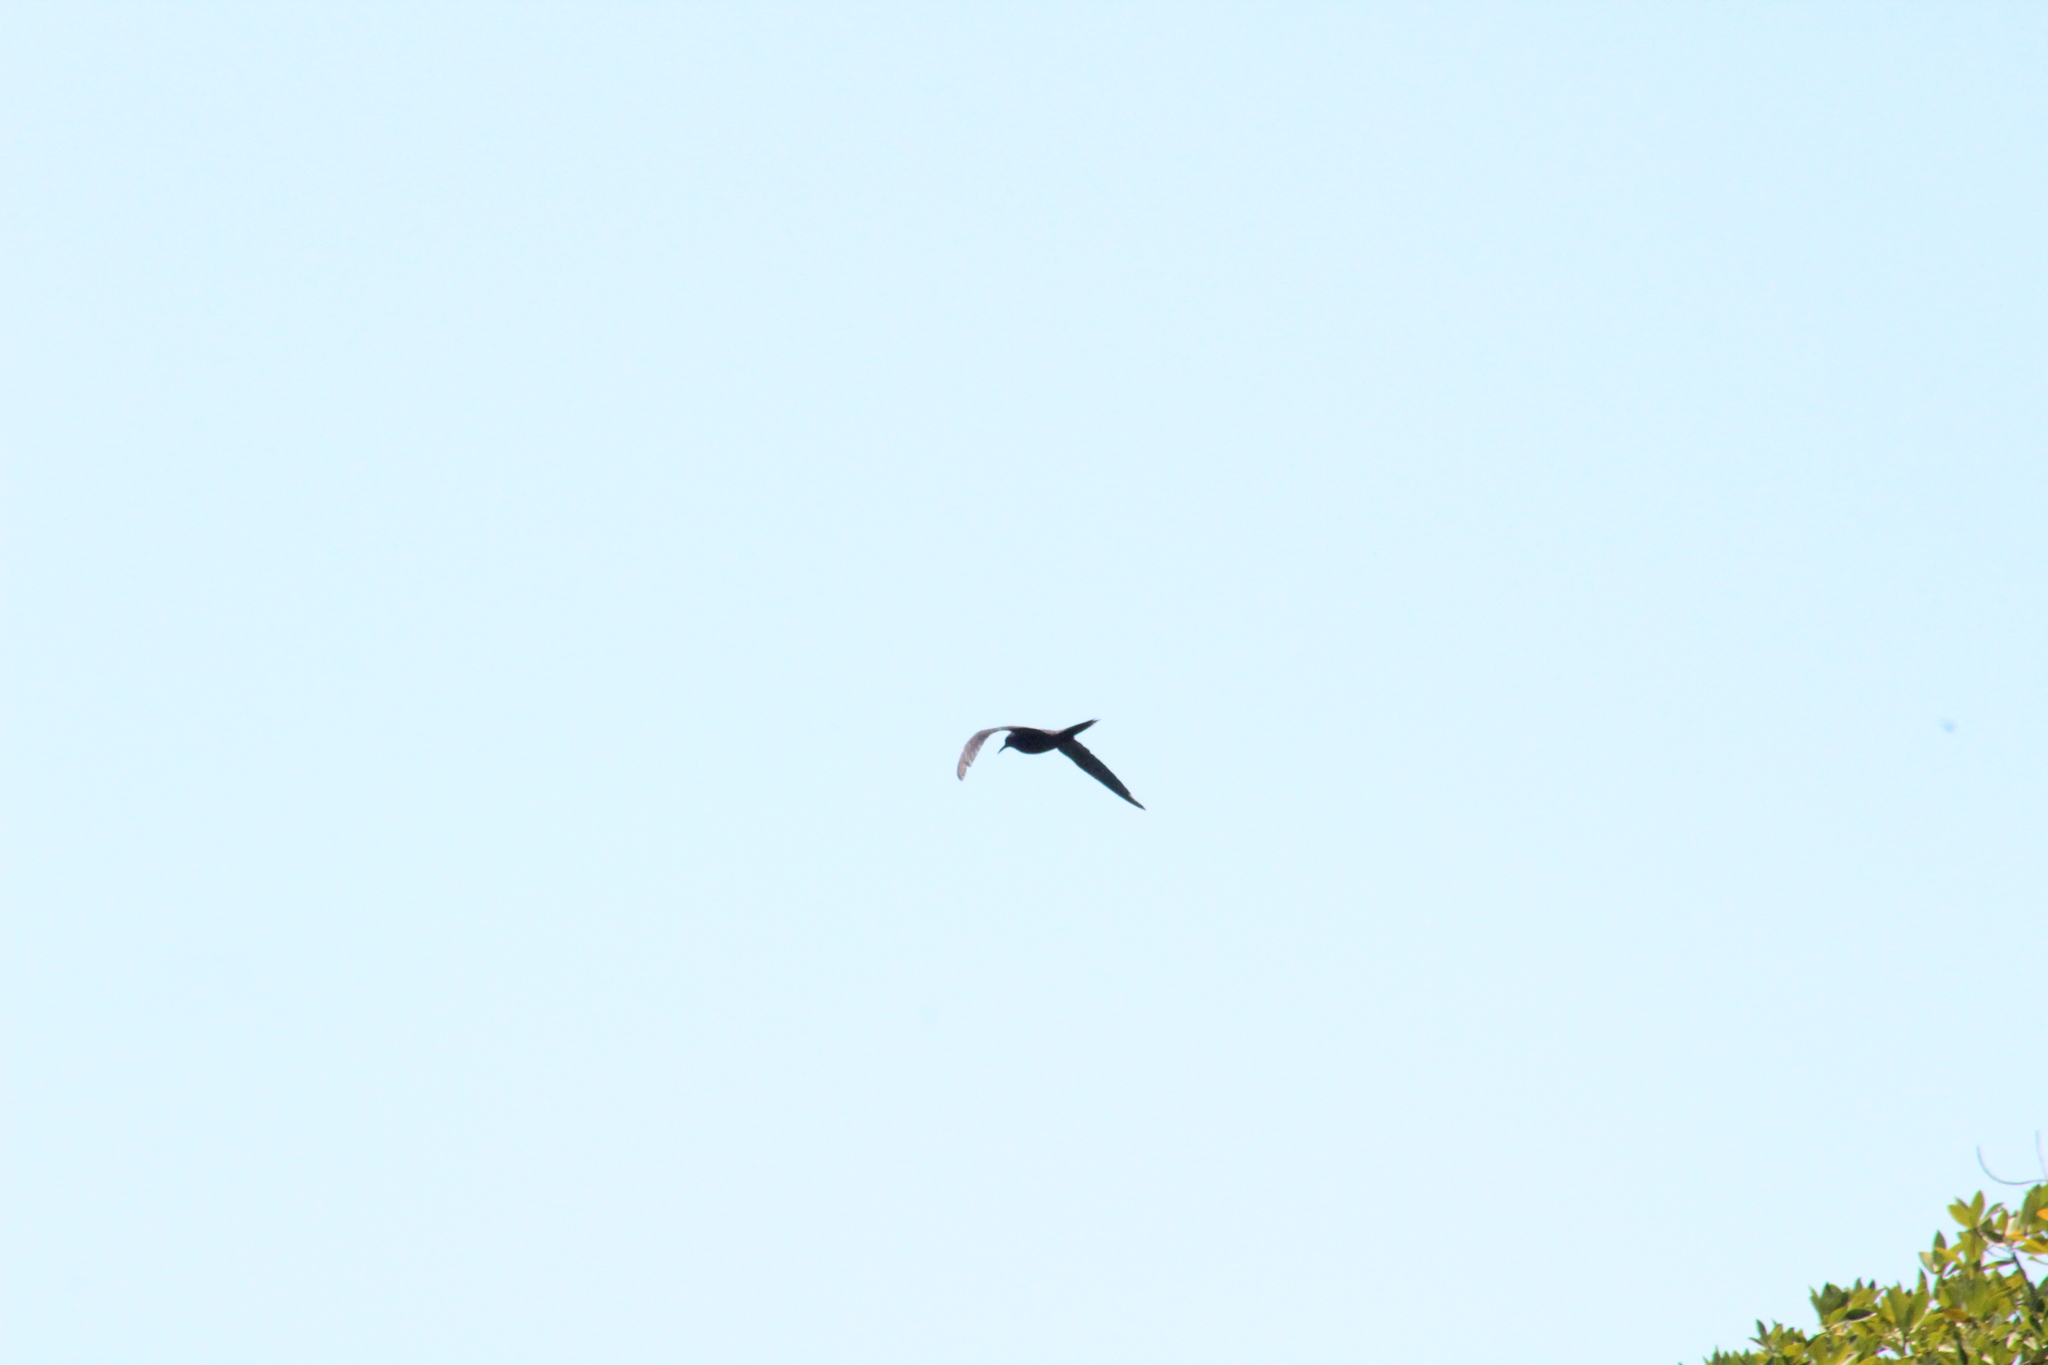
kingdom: Animalia
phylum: Chordata
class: Aves
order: Charadriiformes
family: Laridae
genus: Anous
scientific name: Anous stolidus
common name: Brown noddy
